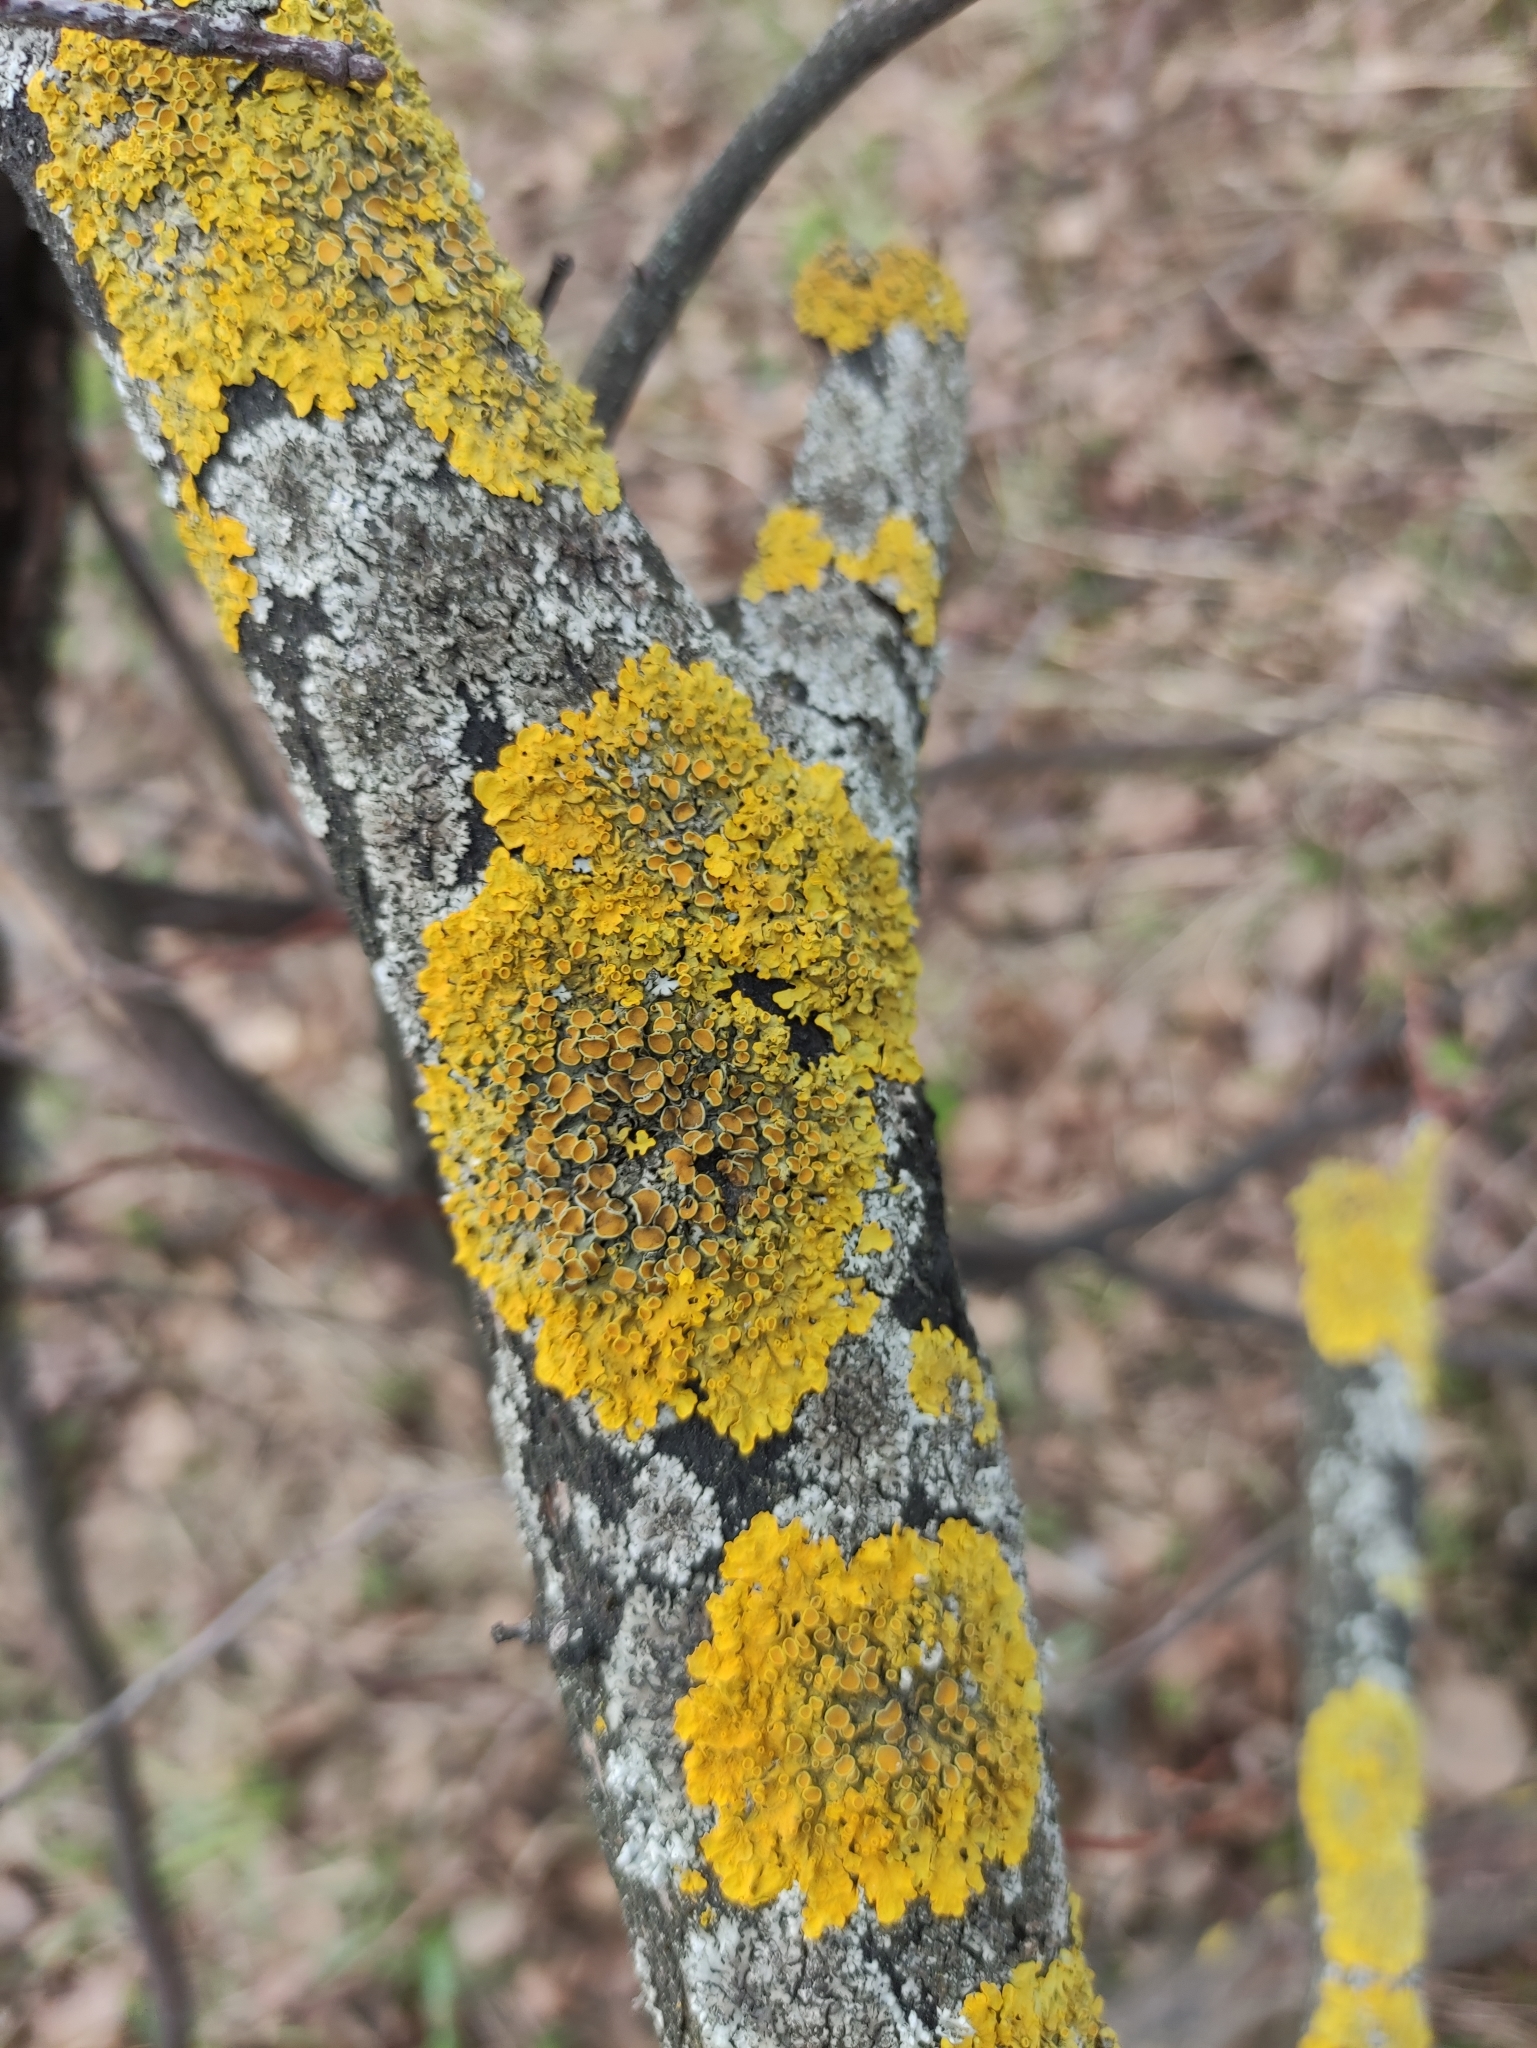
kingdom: Fungi
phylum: Ascomycota
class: Lecanoromycetes
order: Teloschistales
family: Teloschistaceae
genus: Xanthoria
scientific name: Xanthoria parietina
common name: Common orange lichen
